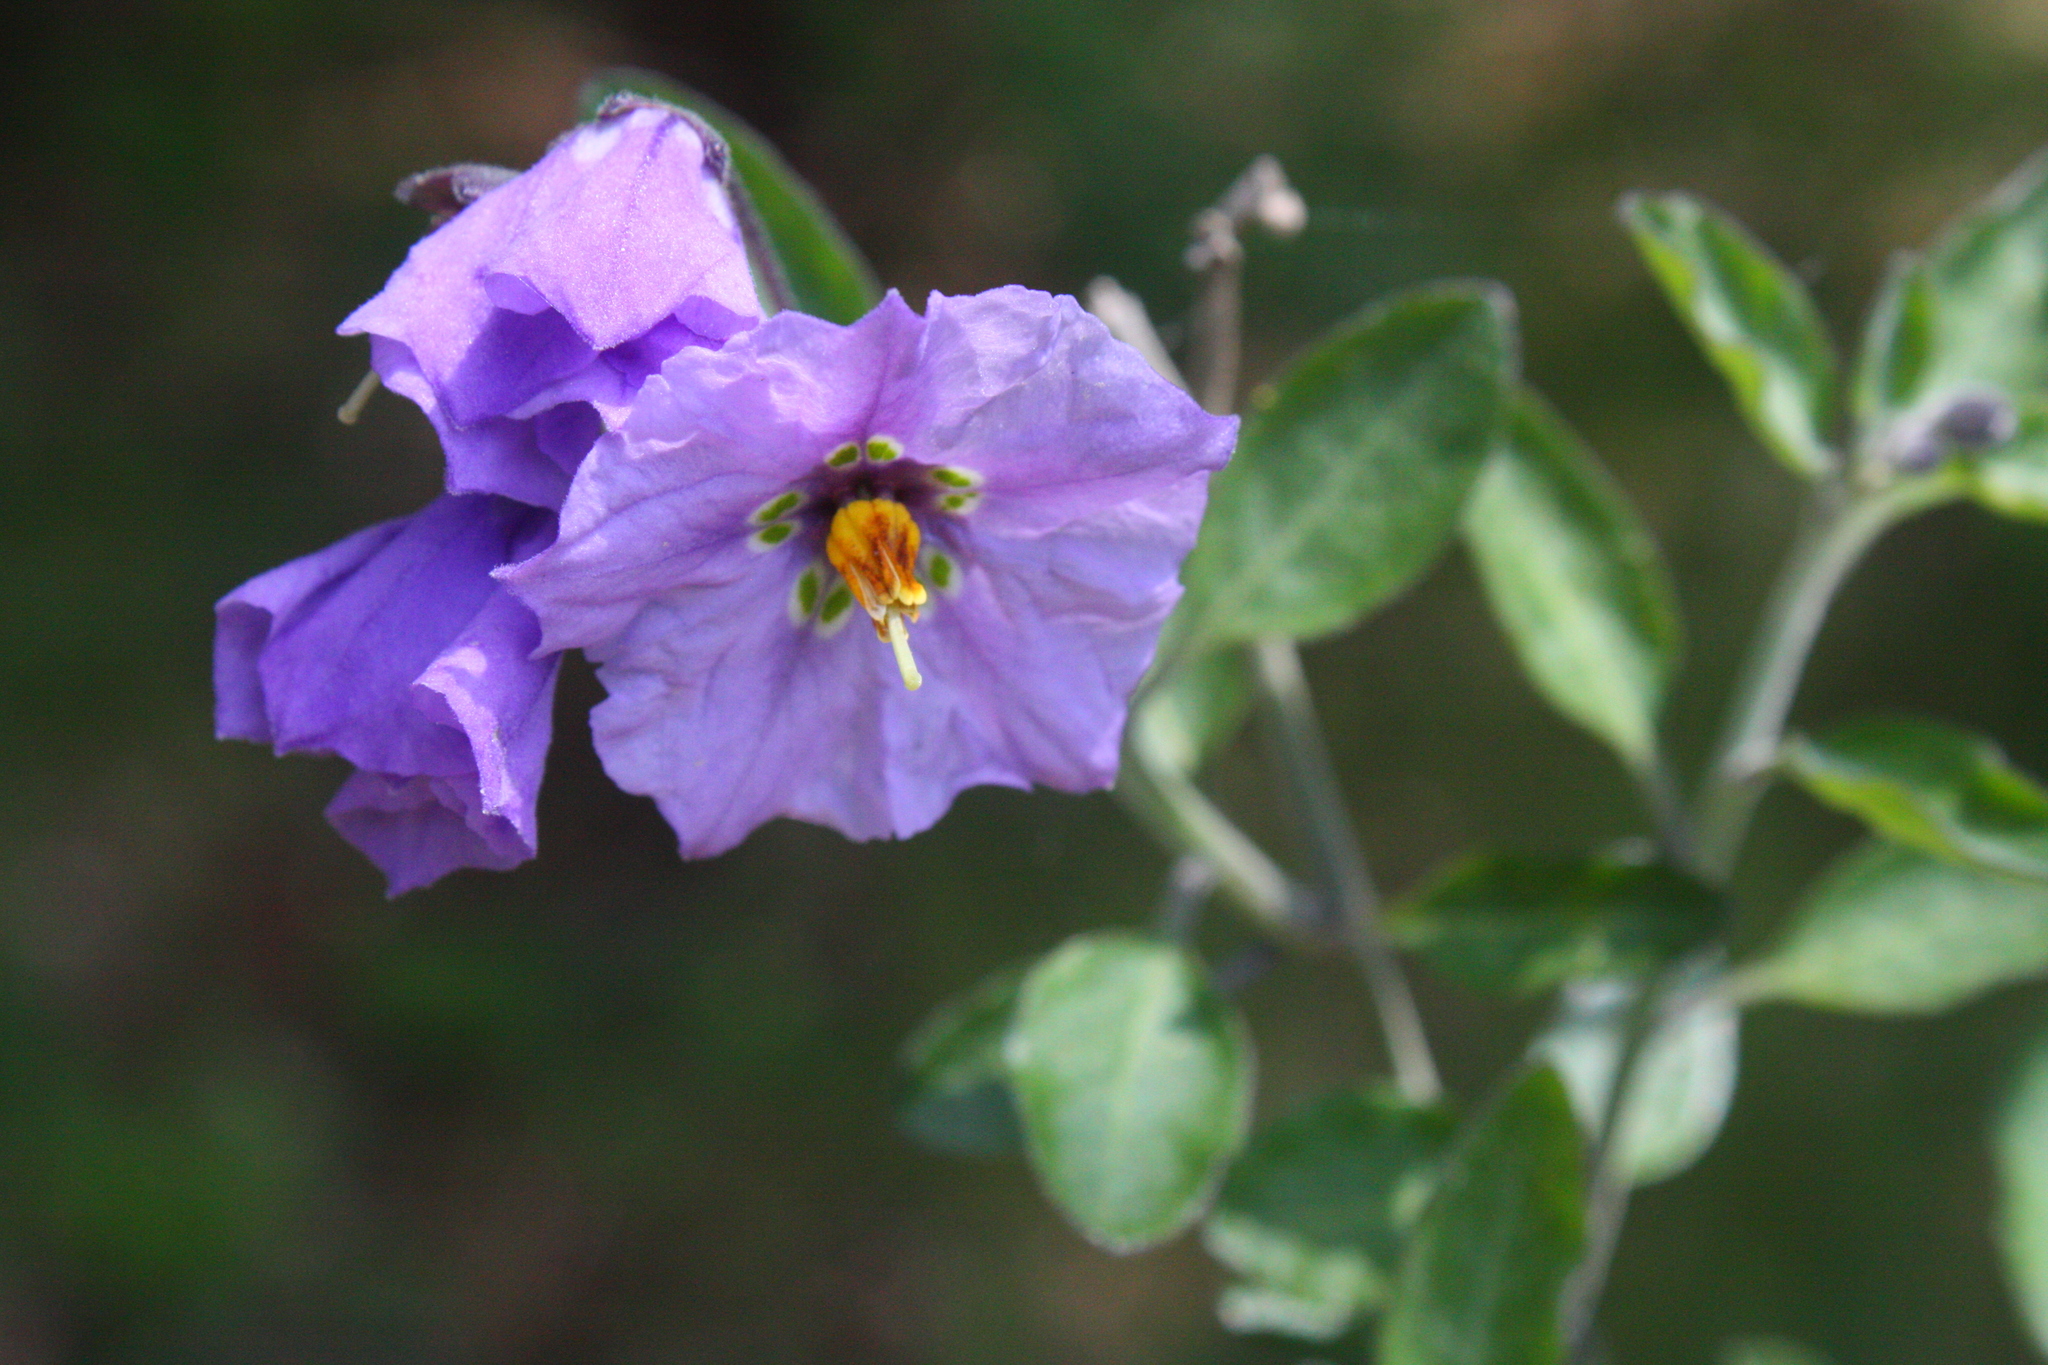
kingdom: Plantae
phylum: Tracheophyta
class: Magnoliopsida
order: Solanales
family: Solanaceae
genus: Solanum
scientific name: Solanum umbelliferum
